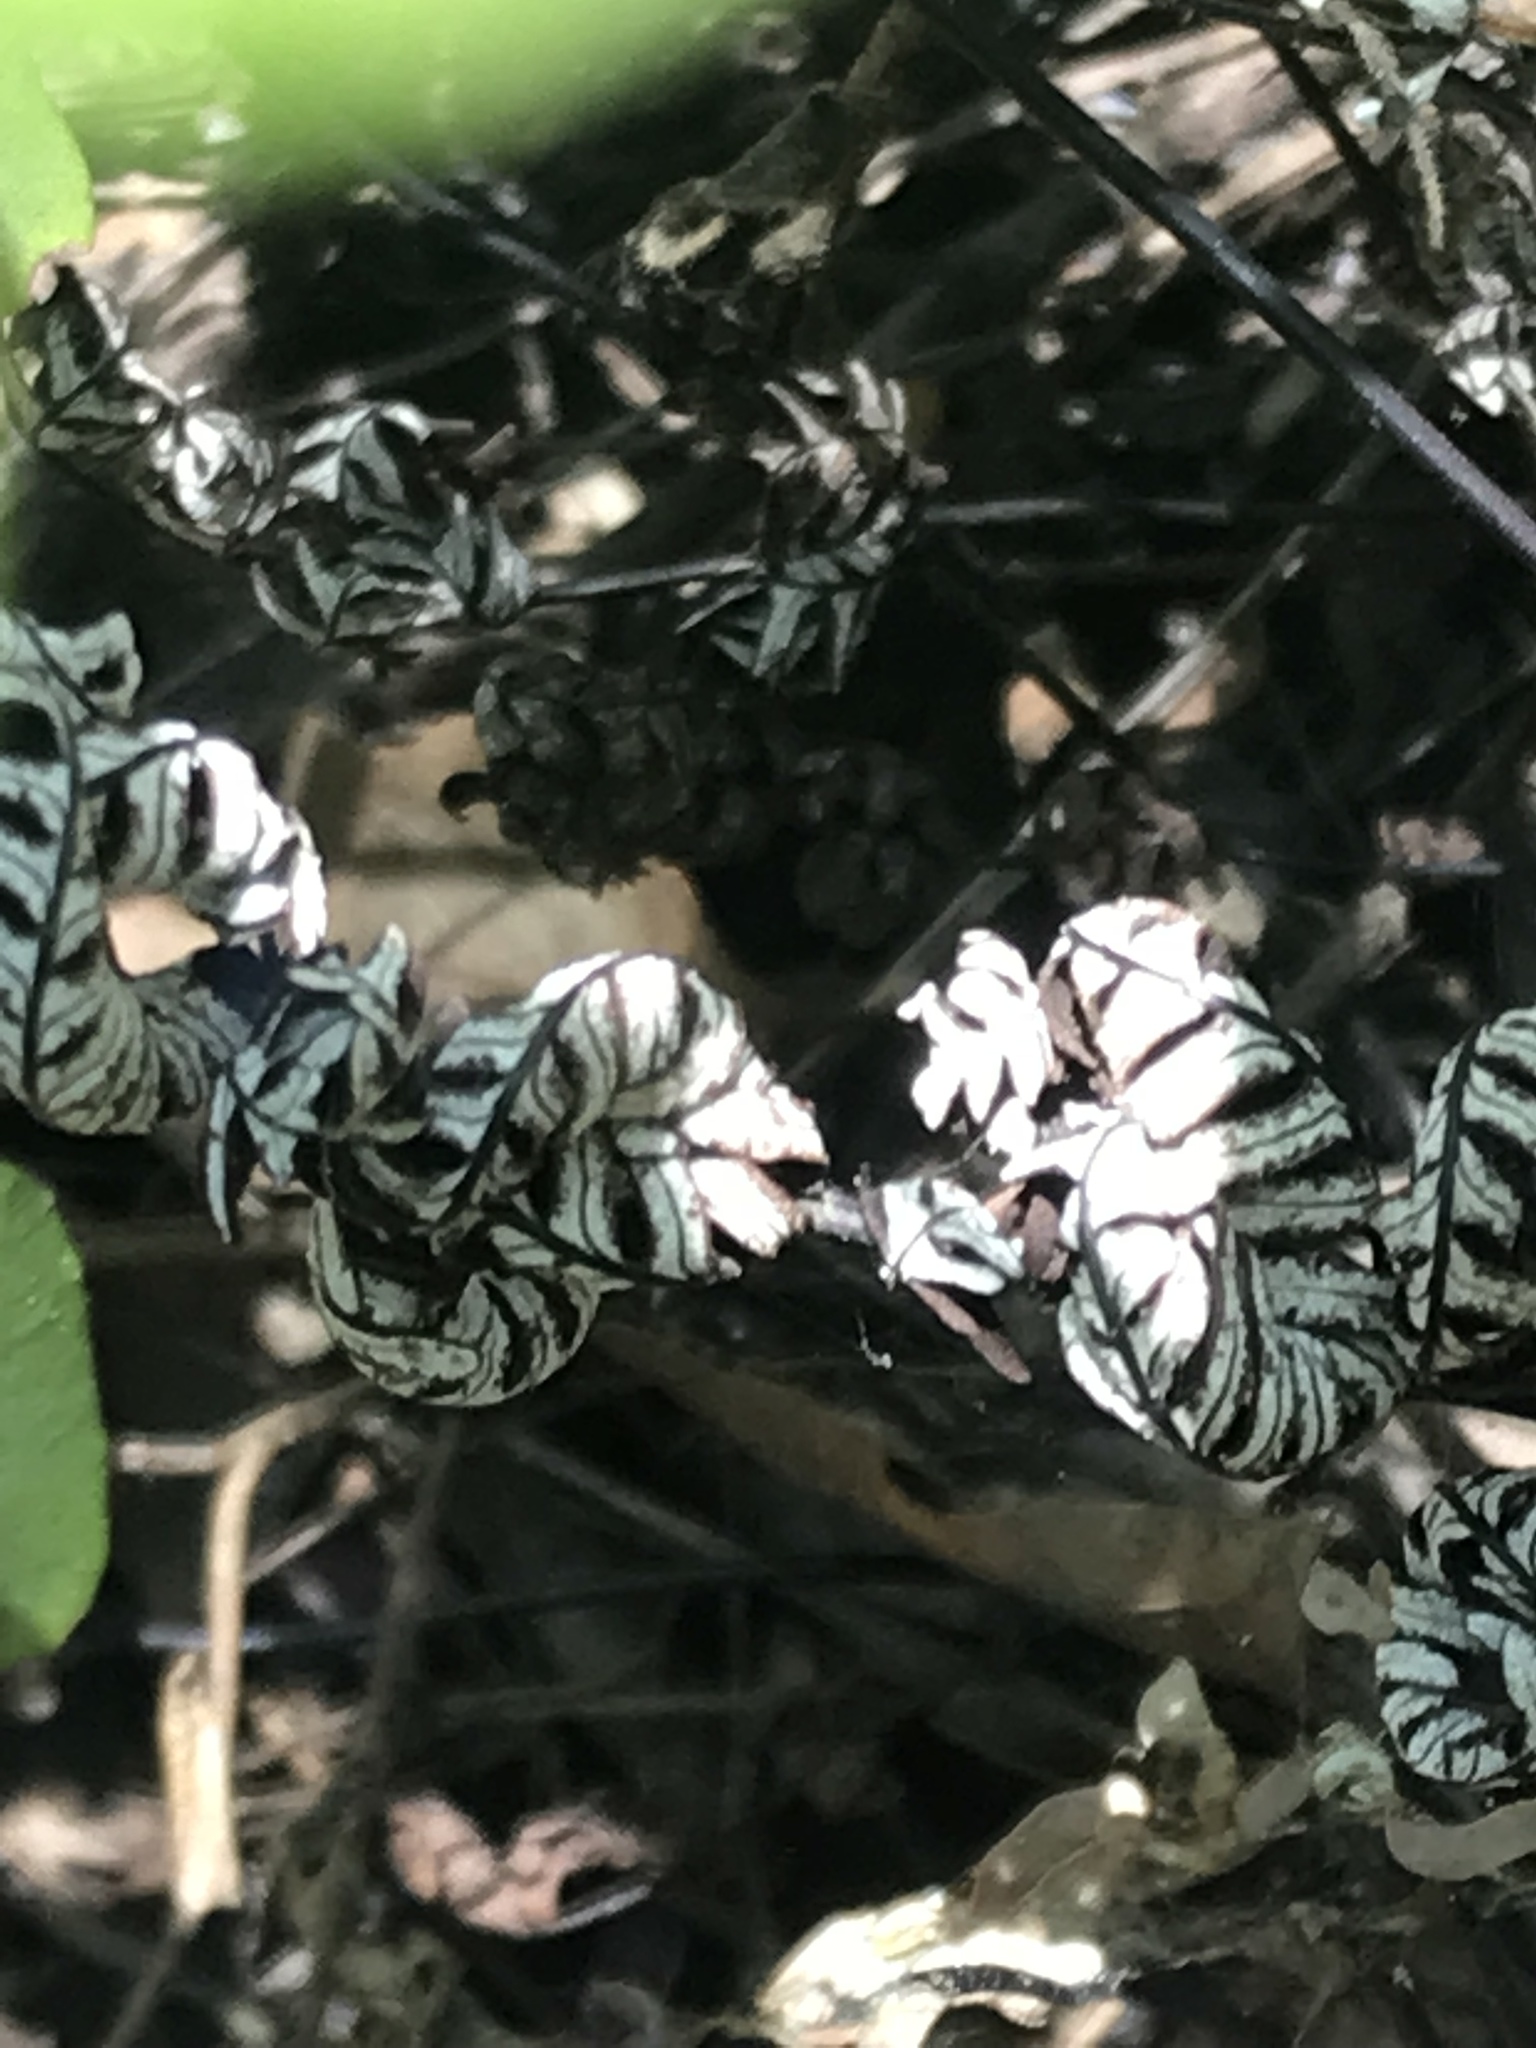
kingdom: Plantae
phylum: Tracheophyta
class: Polypodiopsida
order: Polypodiales
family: Pteridaceae
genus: Notholaena
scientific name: Notholaena
